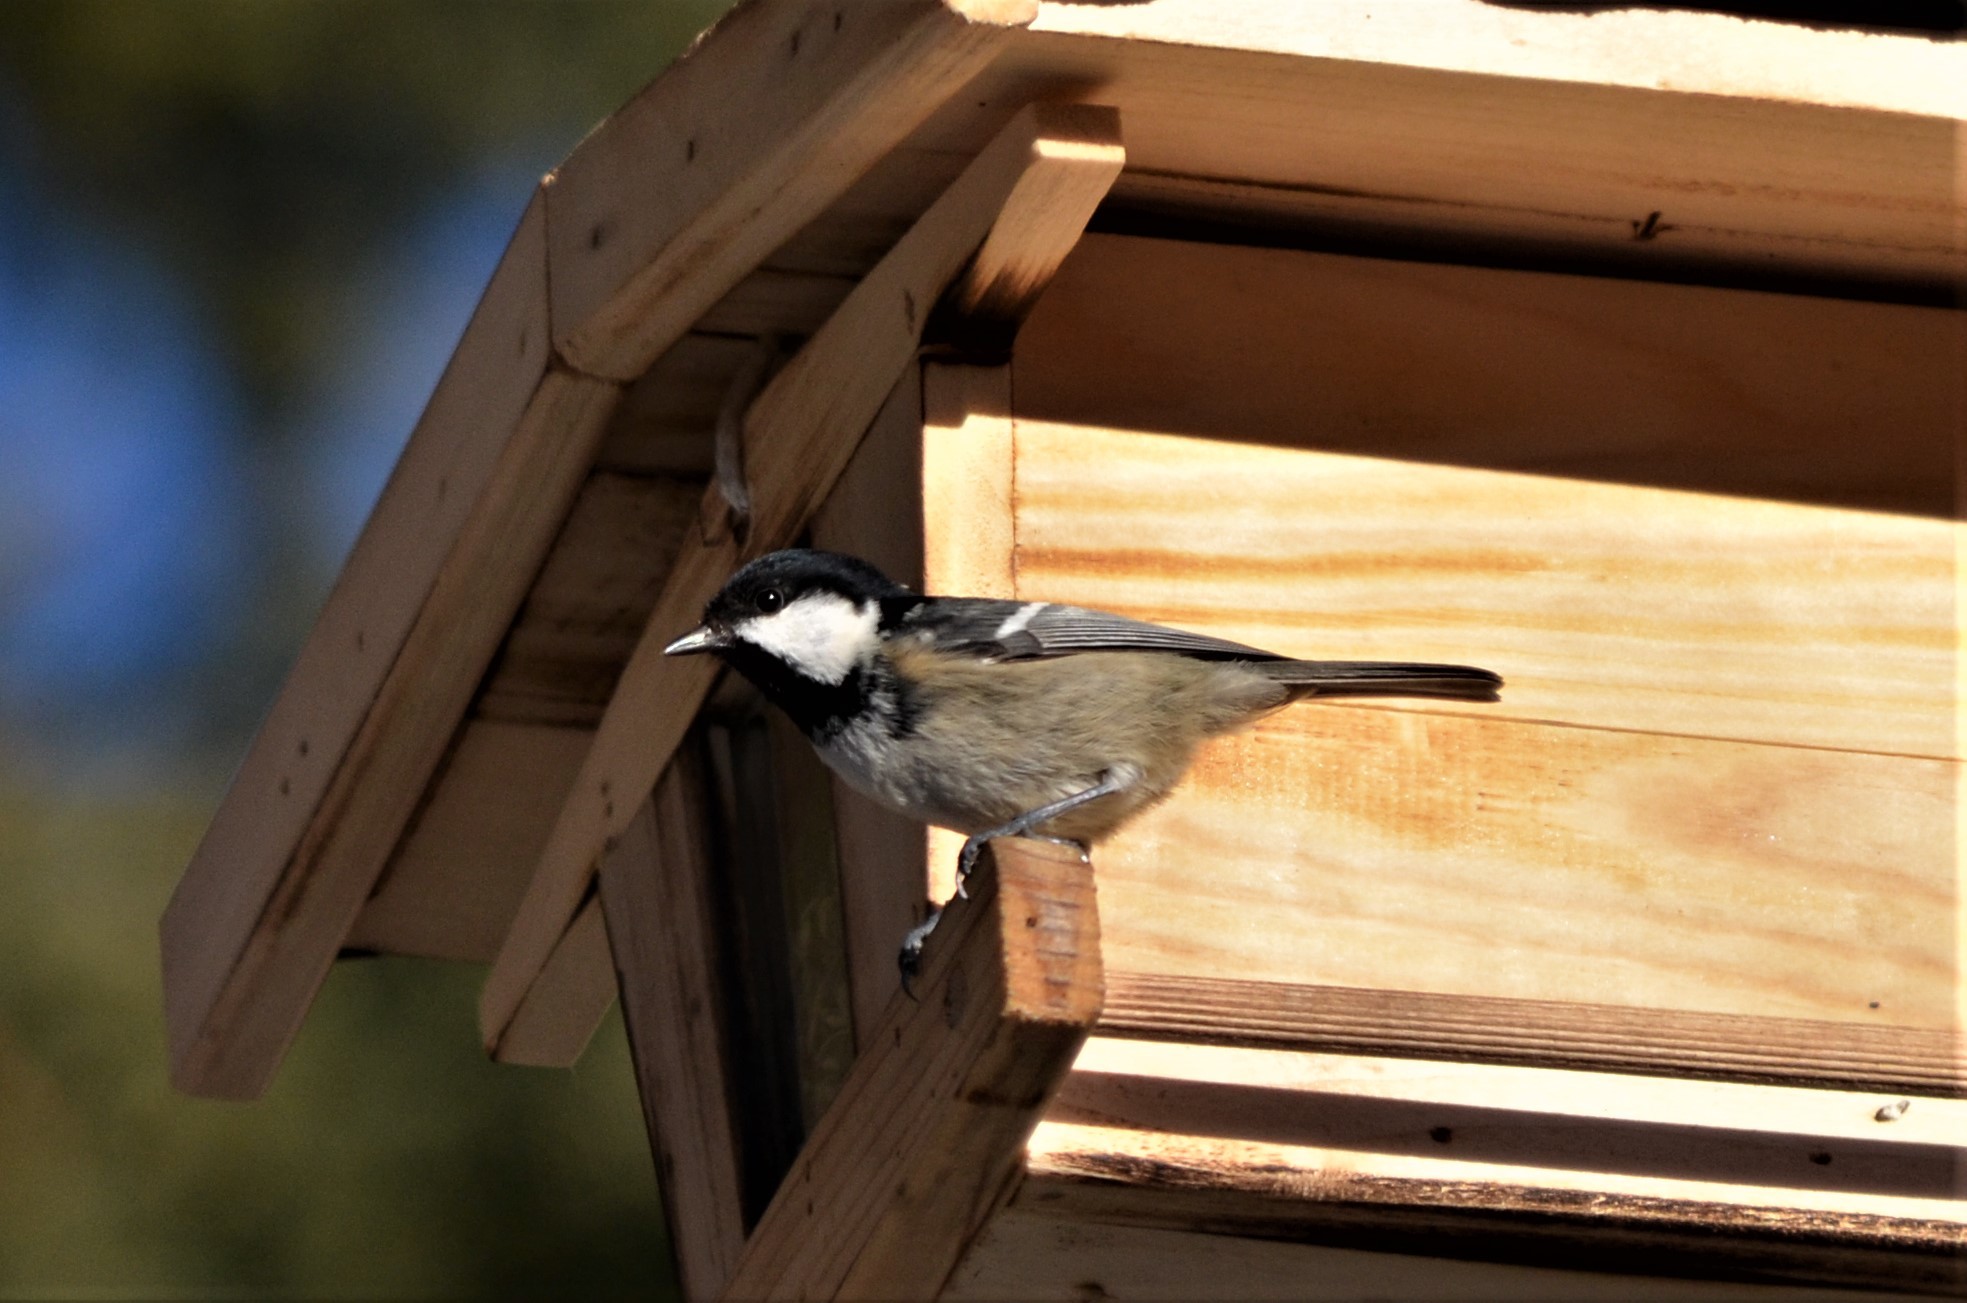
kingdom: Animalia
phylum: Chordata
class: Aves
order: Passeriformes
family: Paridae
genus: Periparus
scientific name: Periparus ater
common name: Coal tit
